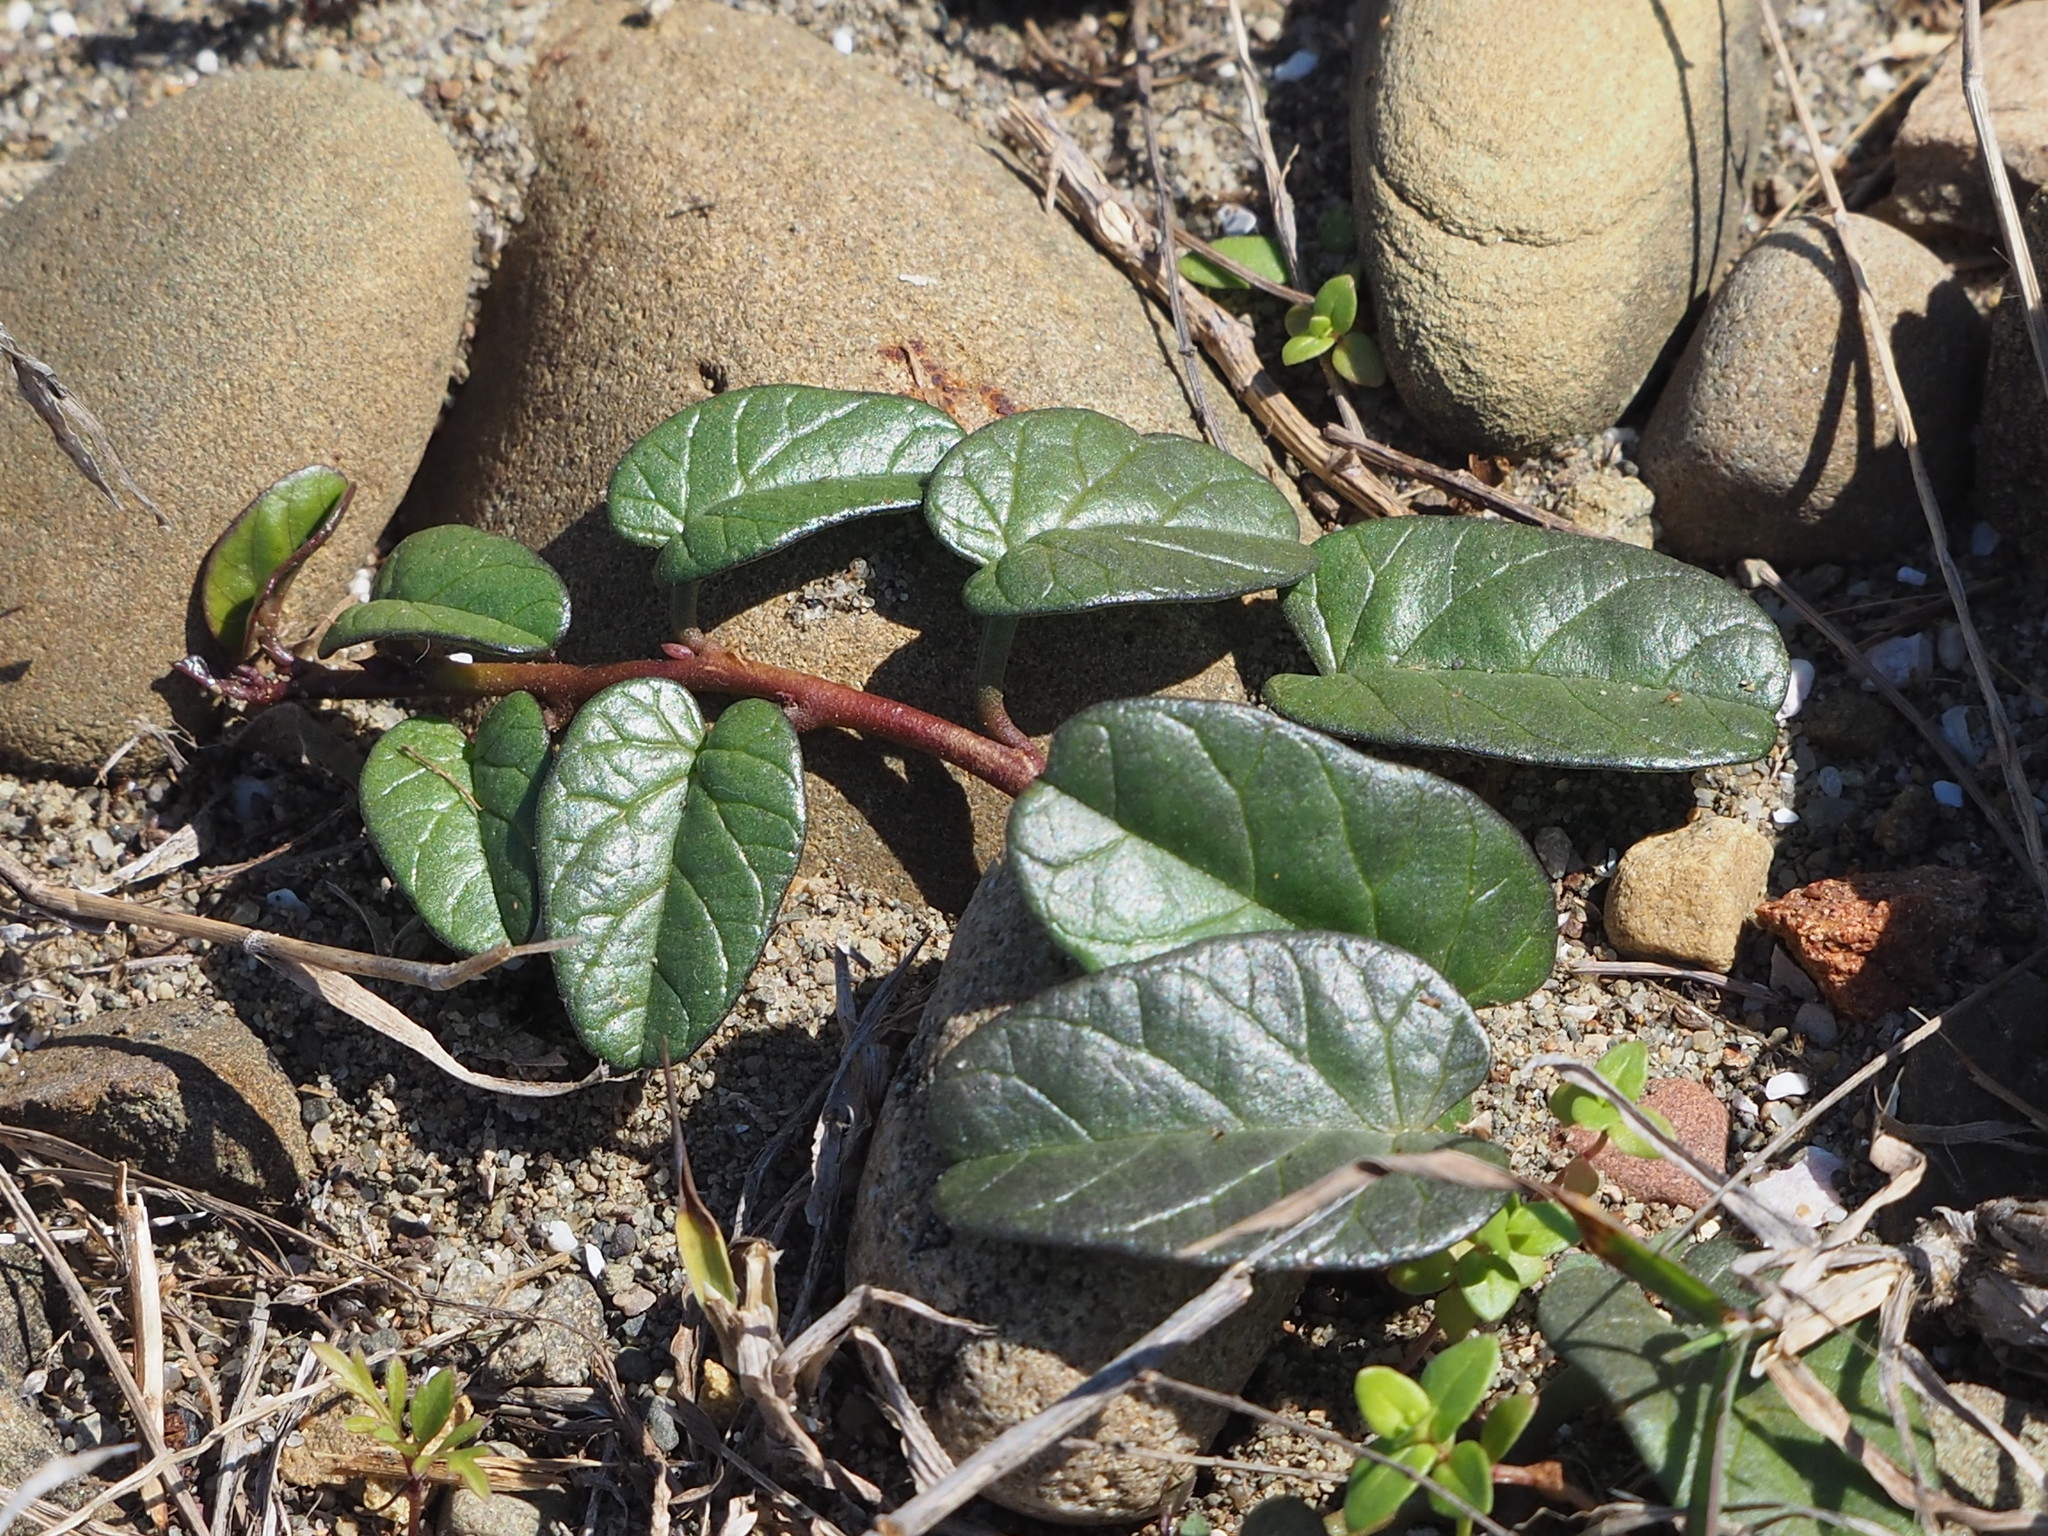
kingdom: Plantae
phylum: Tracheophyta
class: Magnoliopsida
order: Solanales
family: Convolvulaceae
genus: Ipomoea
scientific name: Ipomoea imperati
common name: Fiddle-leaf morning-glory
